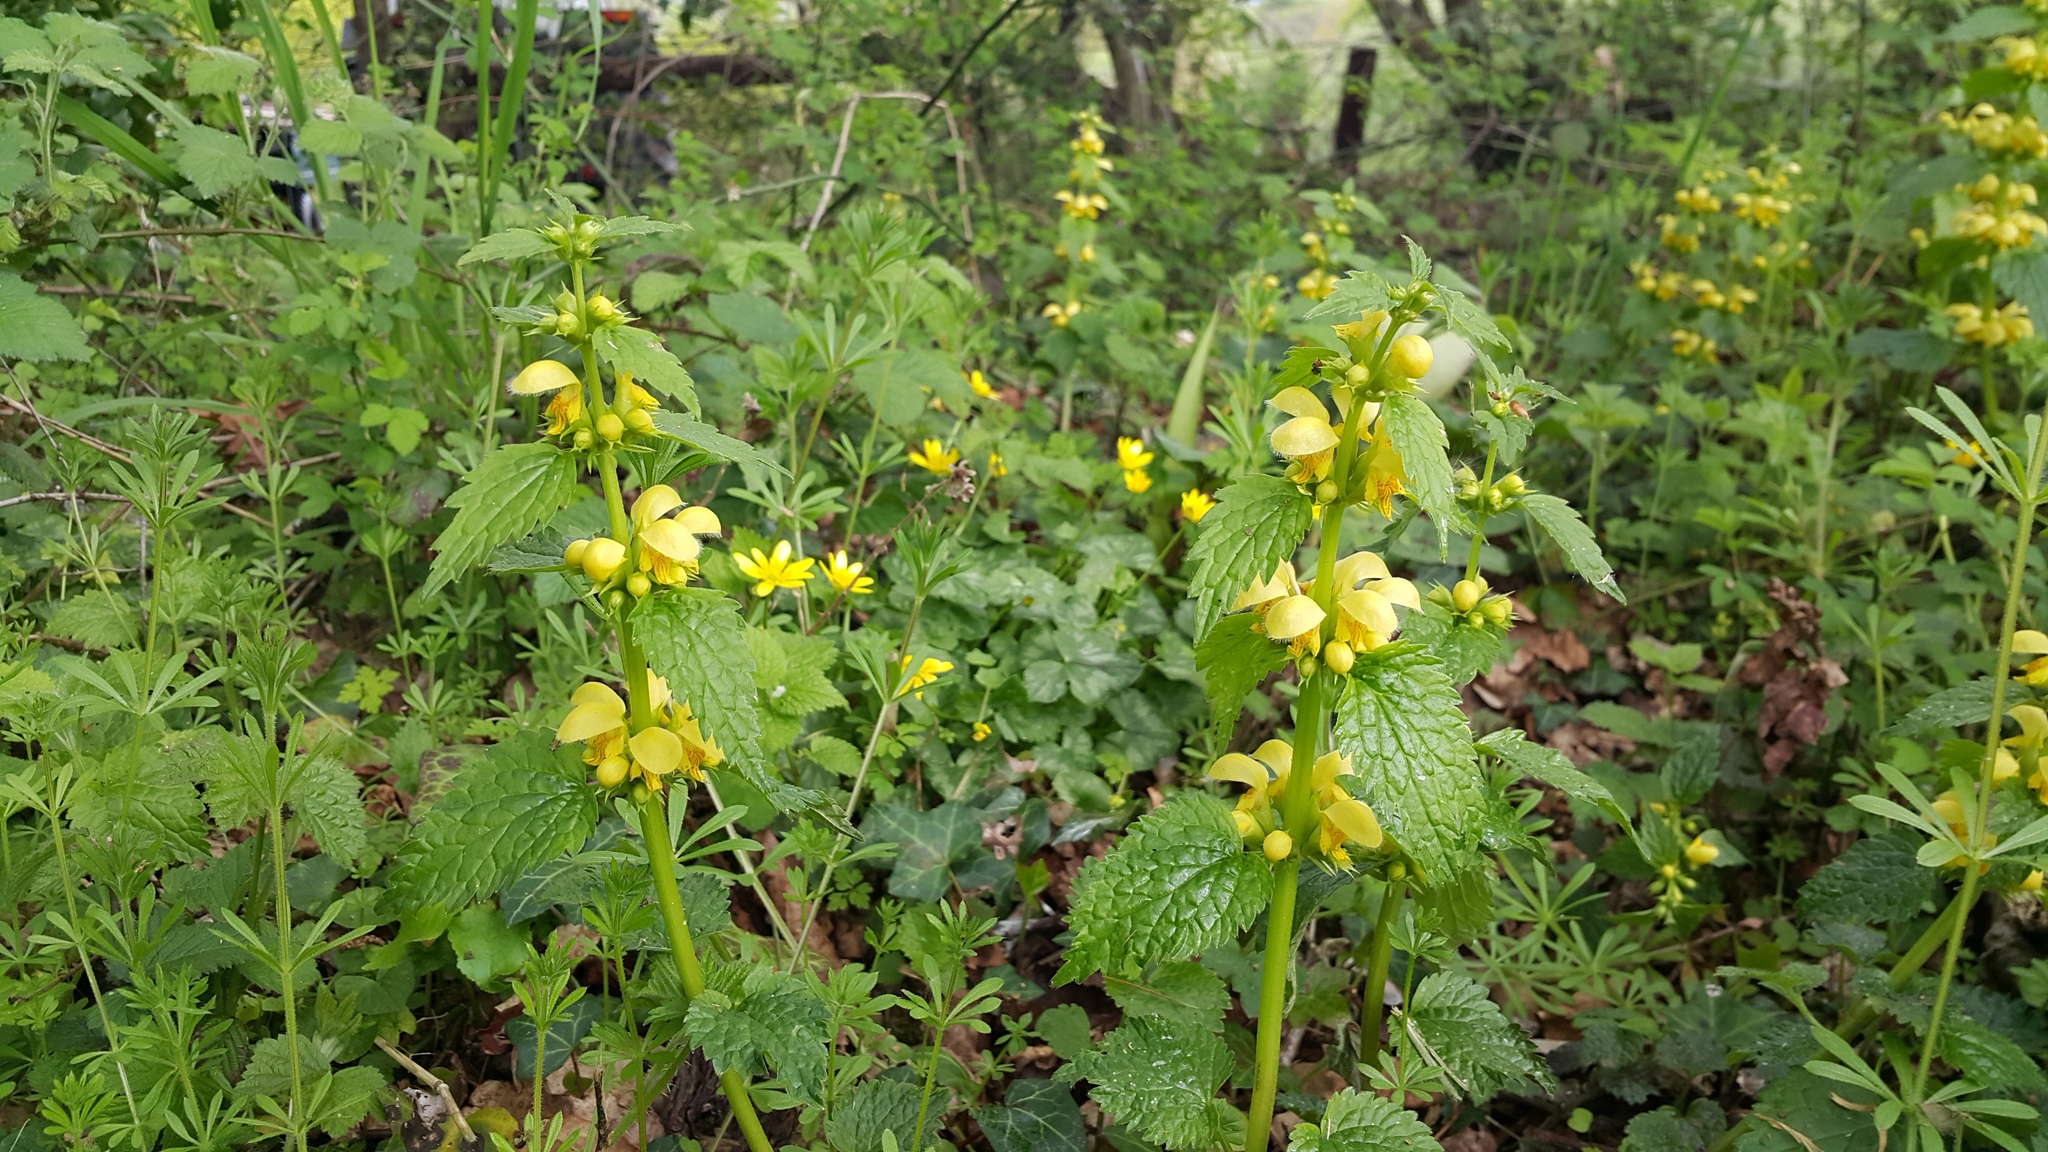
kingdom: Plantae
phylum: Tracheophyta
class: Magnoliopsida
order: Lamiales
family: Lamiaceae
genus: Lamium
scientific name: Lamium galeobdolon
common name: Yellow archangel
